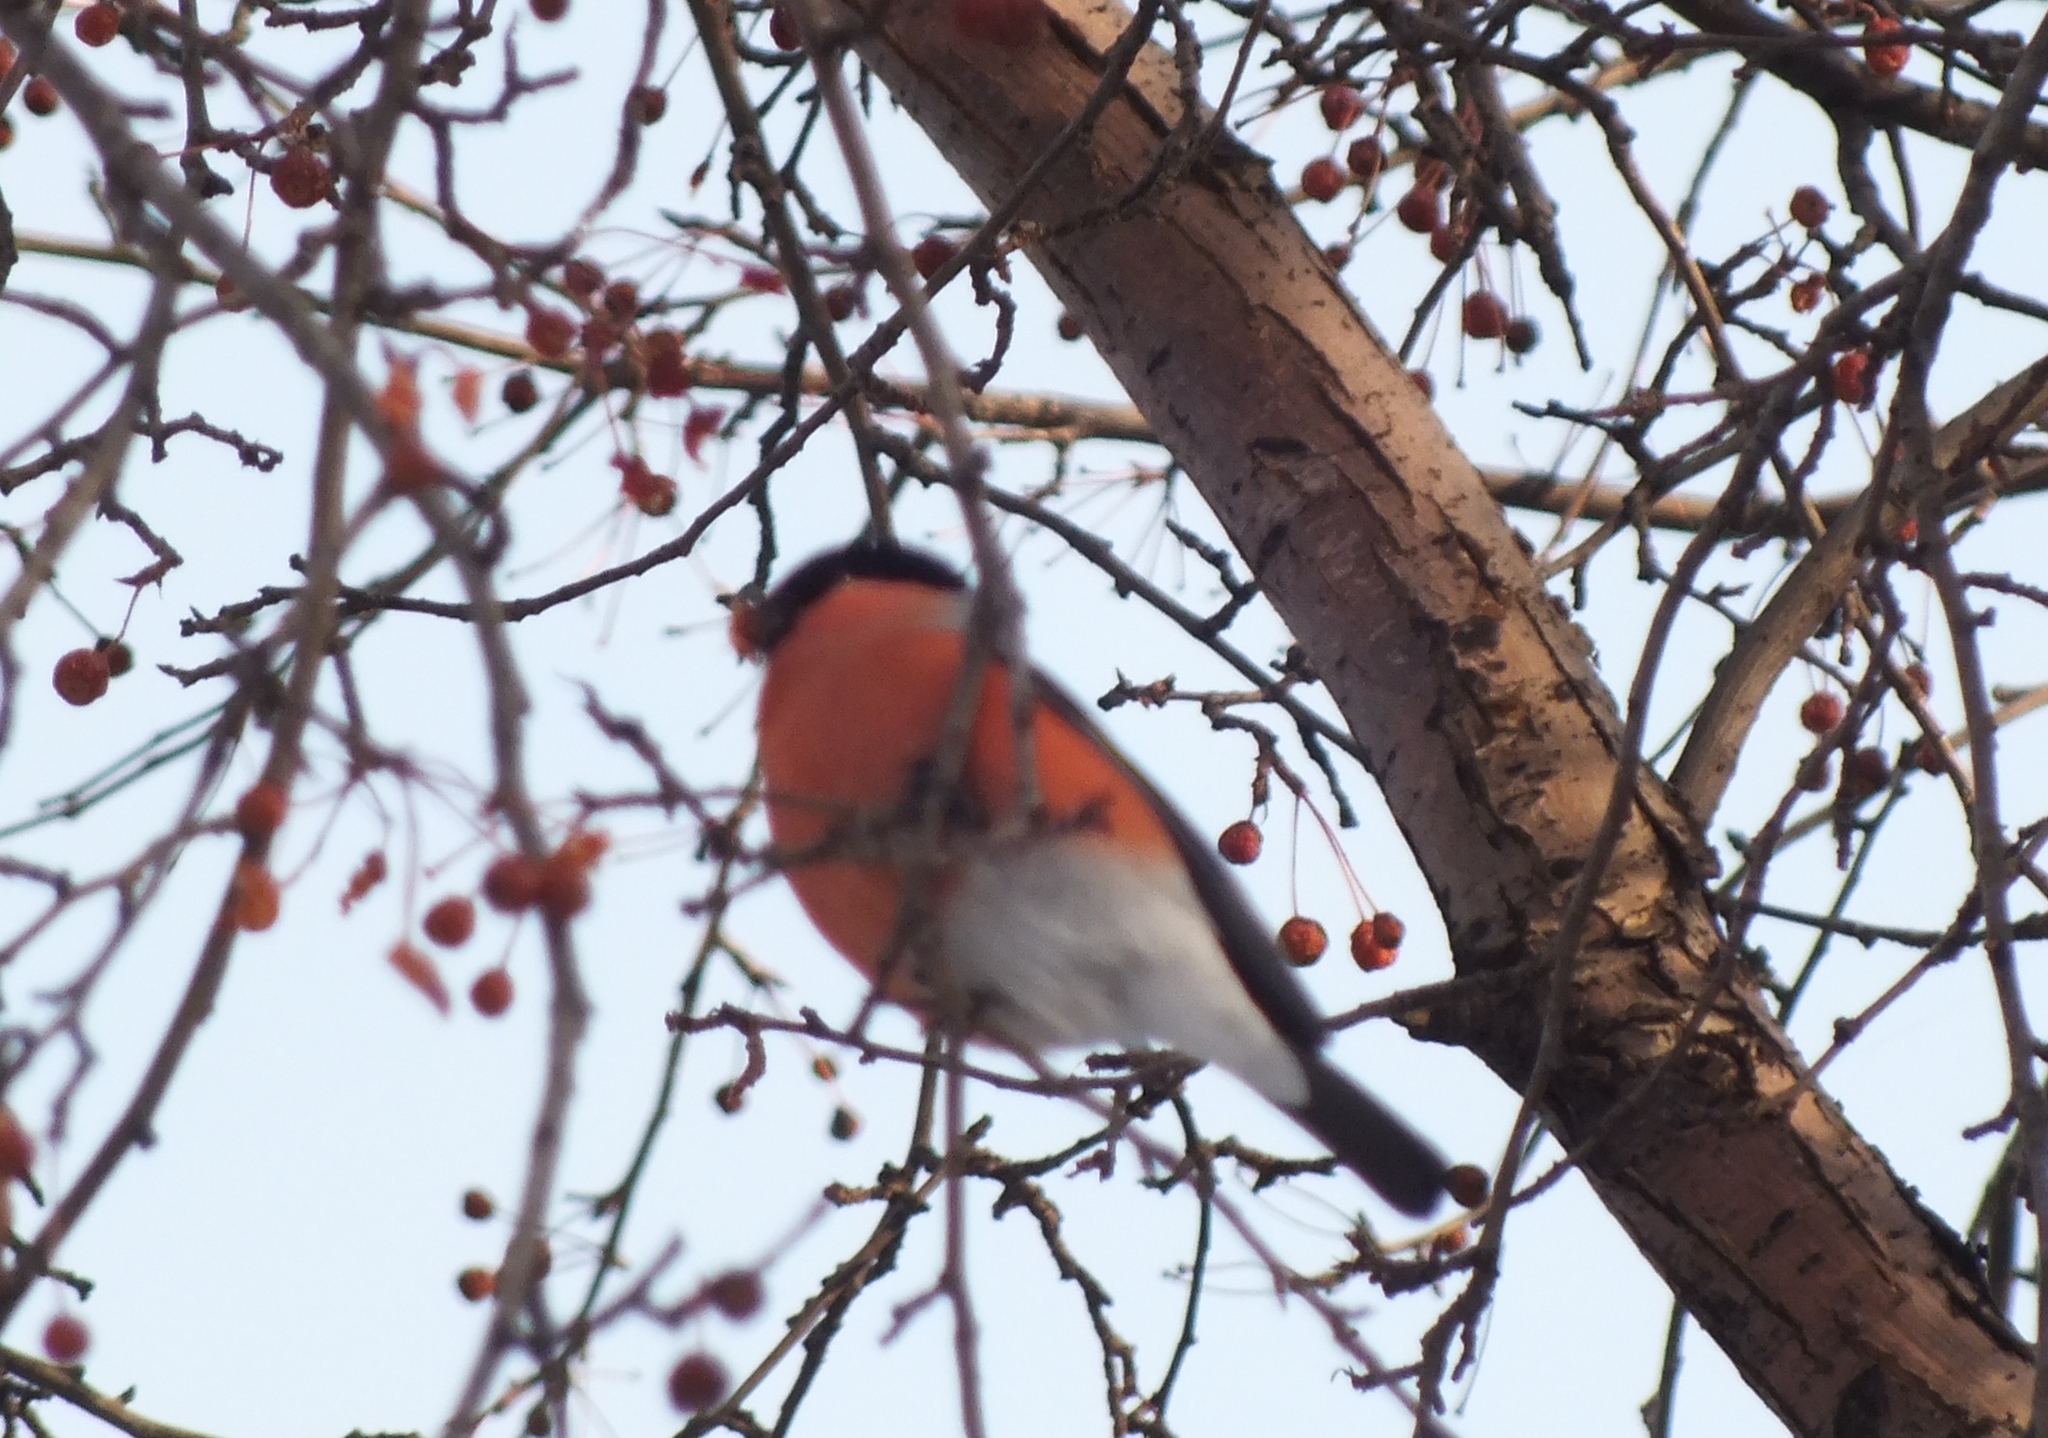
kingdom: Animalia
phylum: Chordata
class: Aves
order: Passeriformes
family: Fringillidae
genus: Pyrrhula
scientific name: Pyrrhula pyrrhula
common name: Eurasian bullfinch
